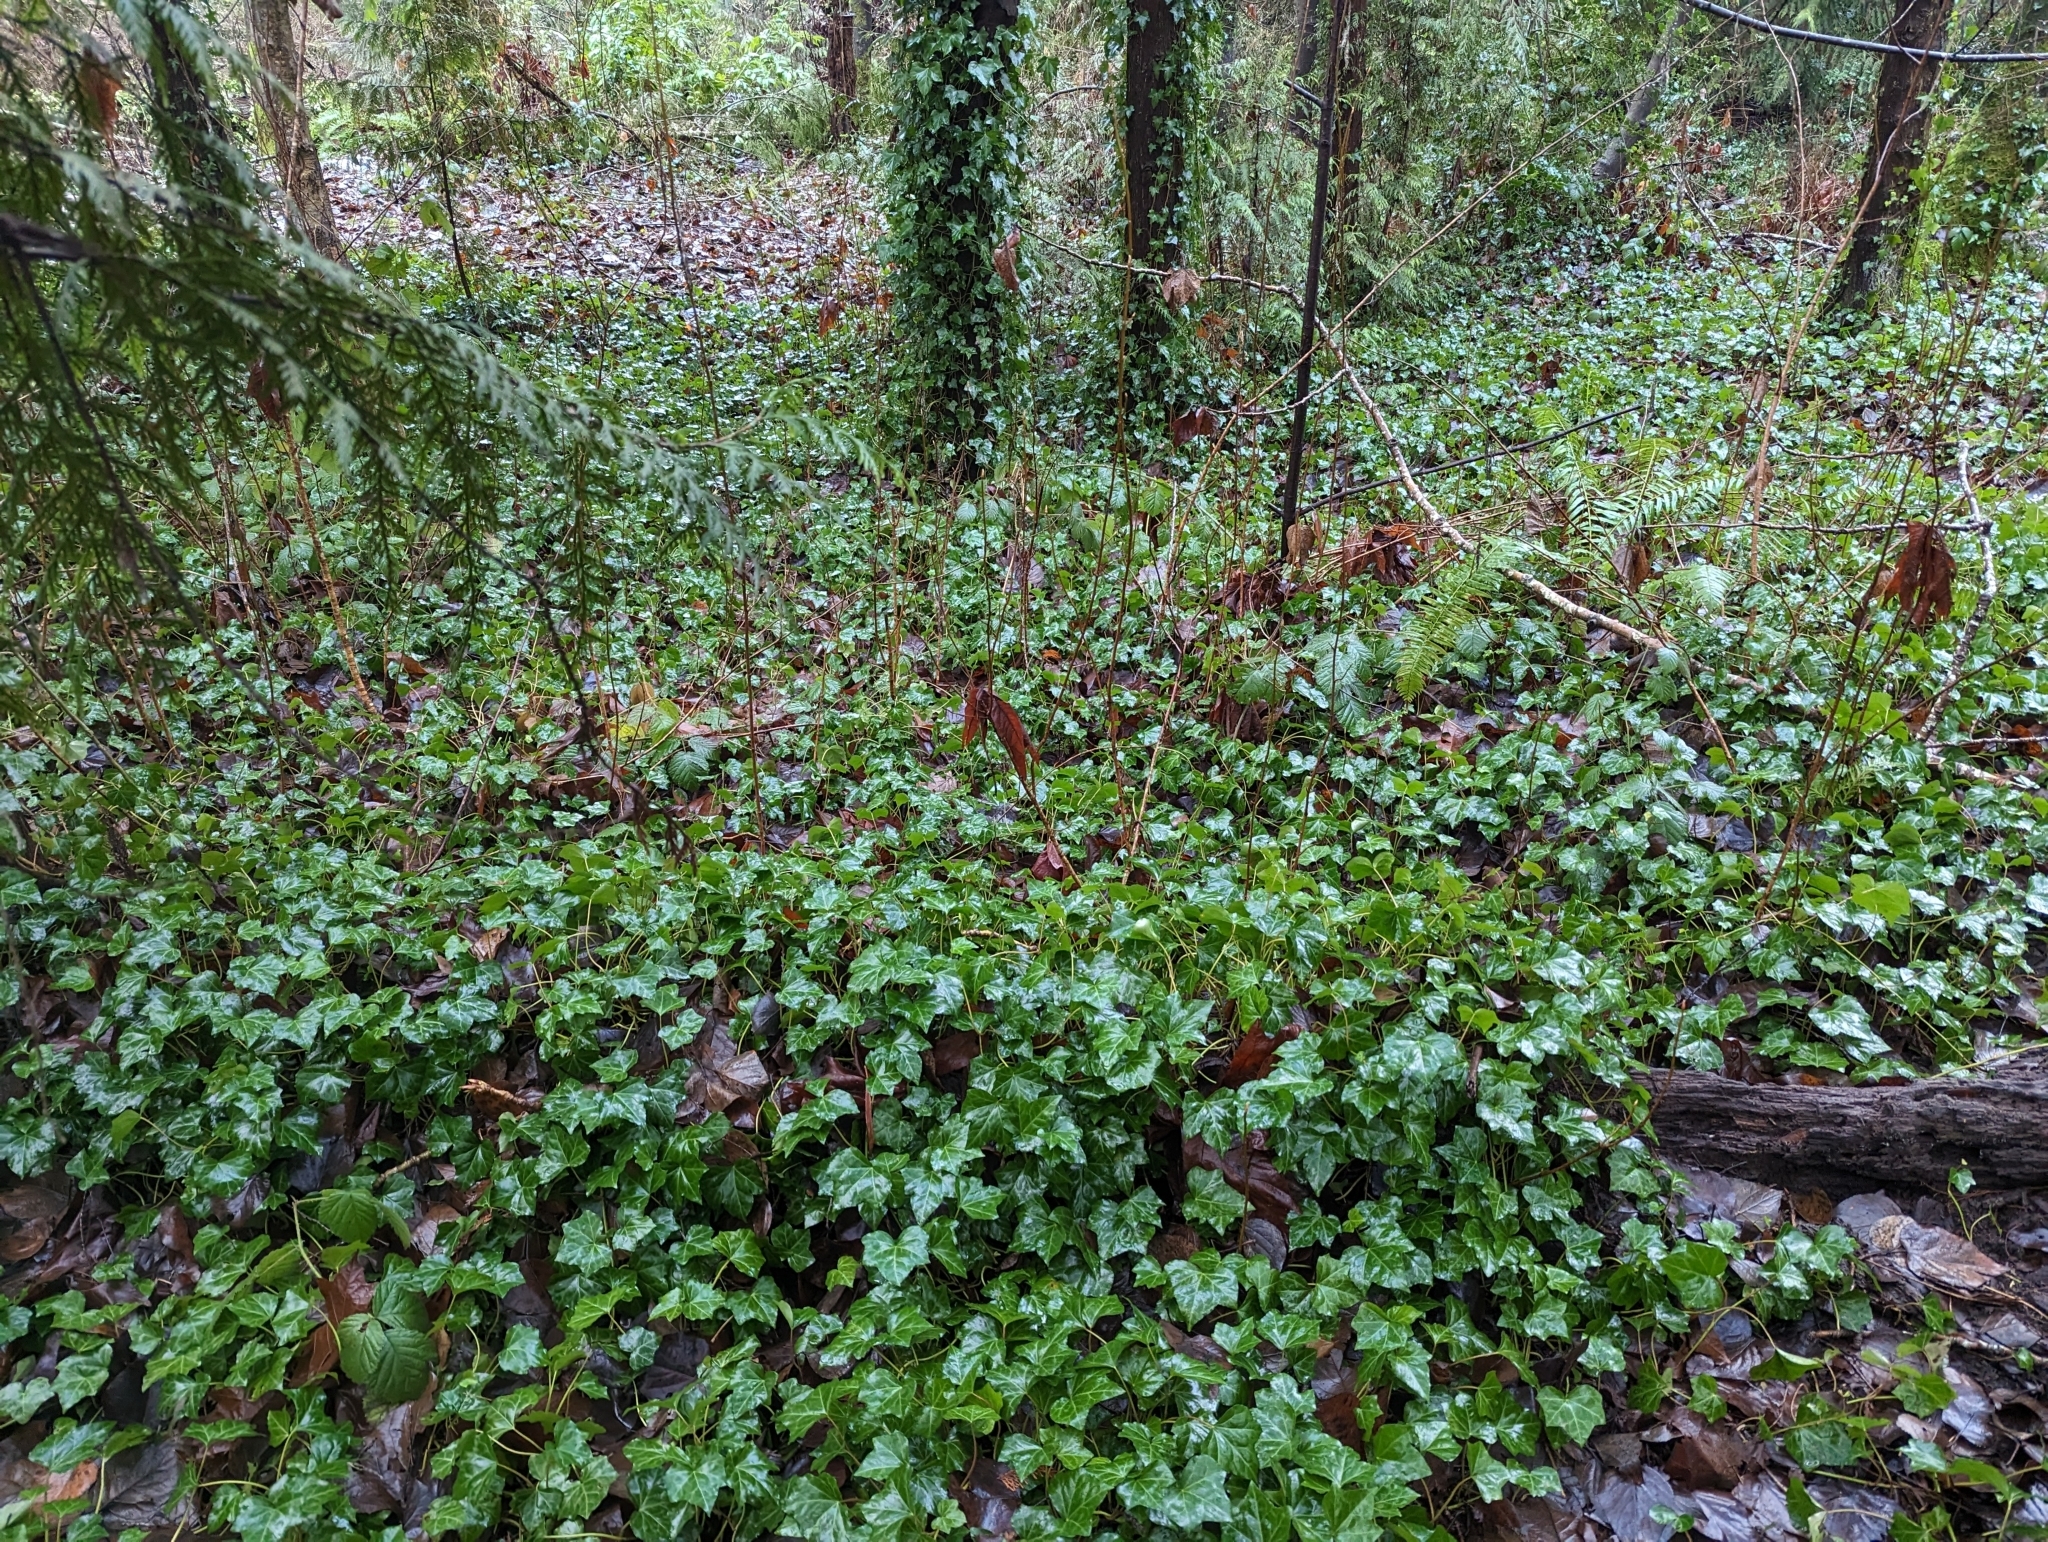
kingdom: Plantae
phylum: Tracheophyta
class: Magnoliopsida
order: Apiales
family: Araliaceae
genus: Hedera
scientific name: Hedera helix
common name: Ivy
